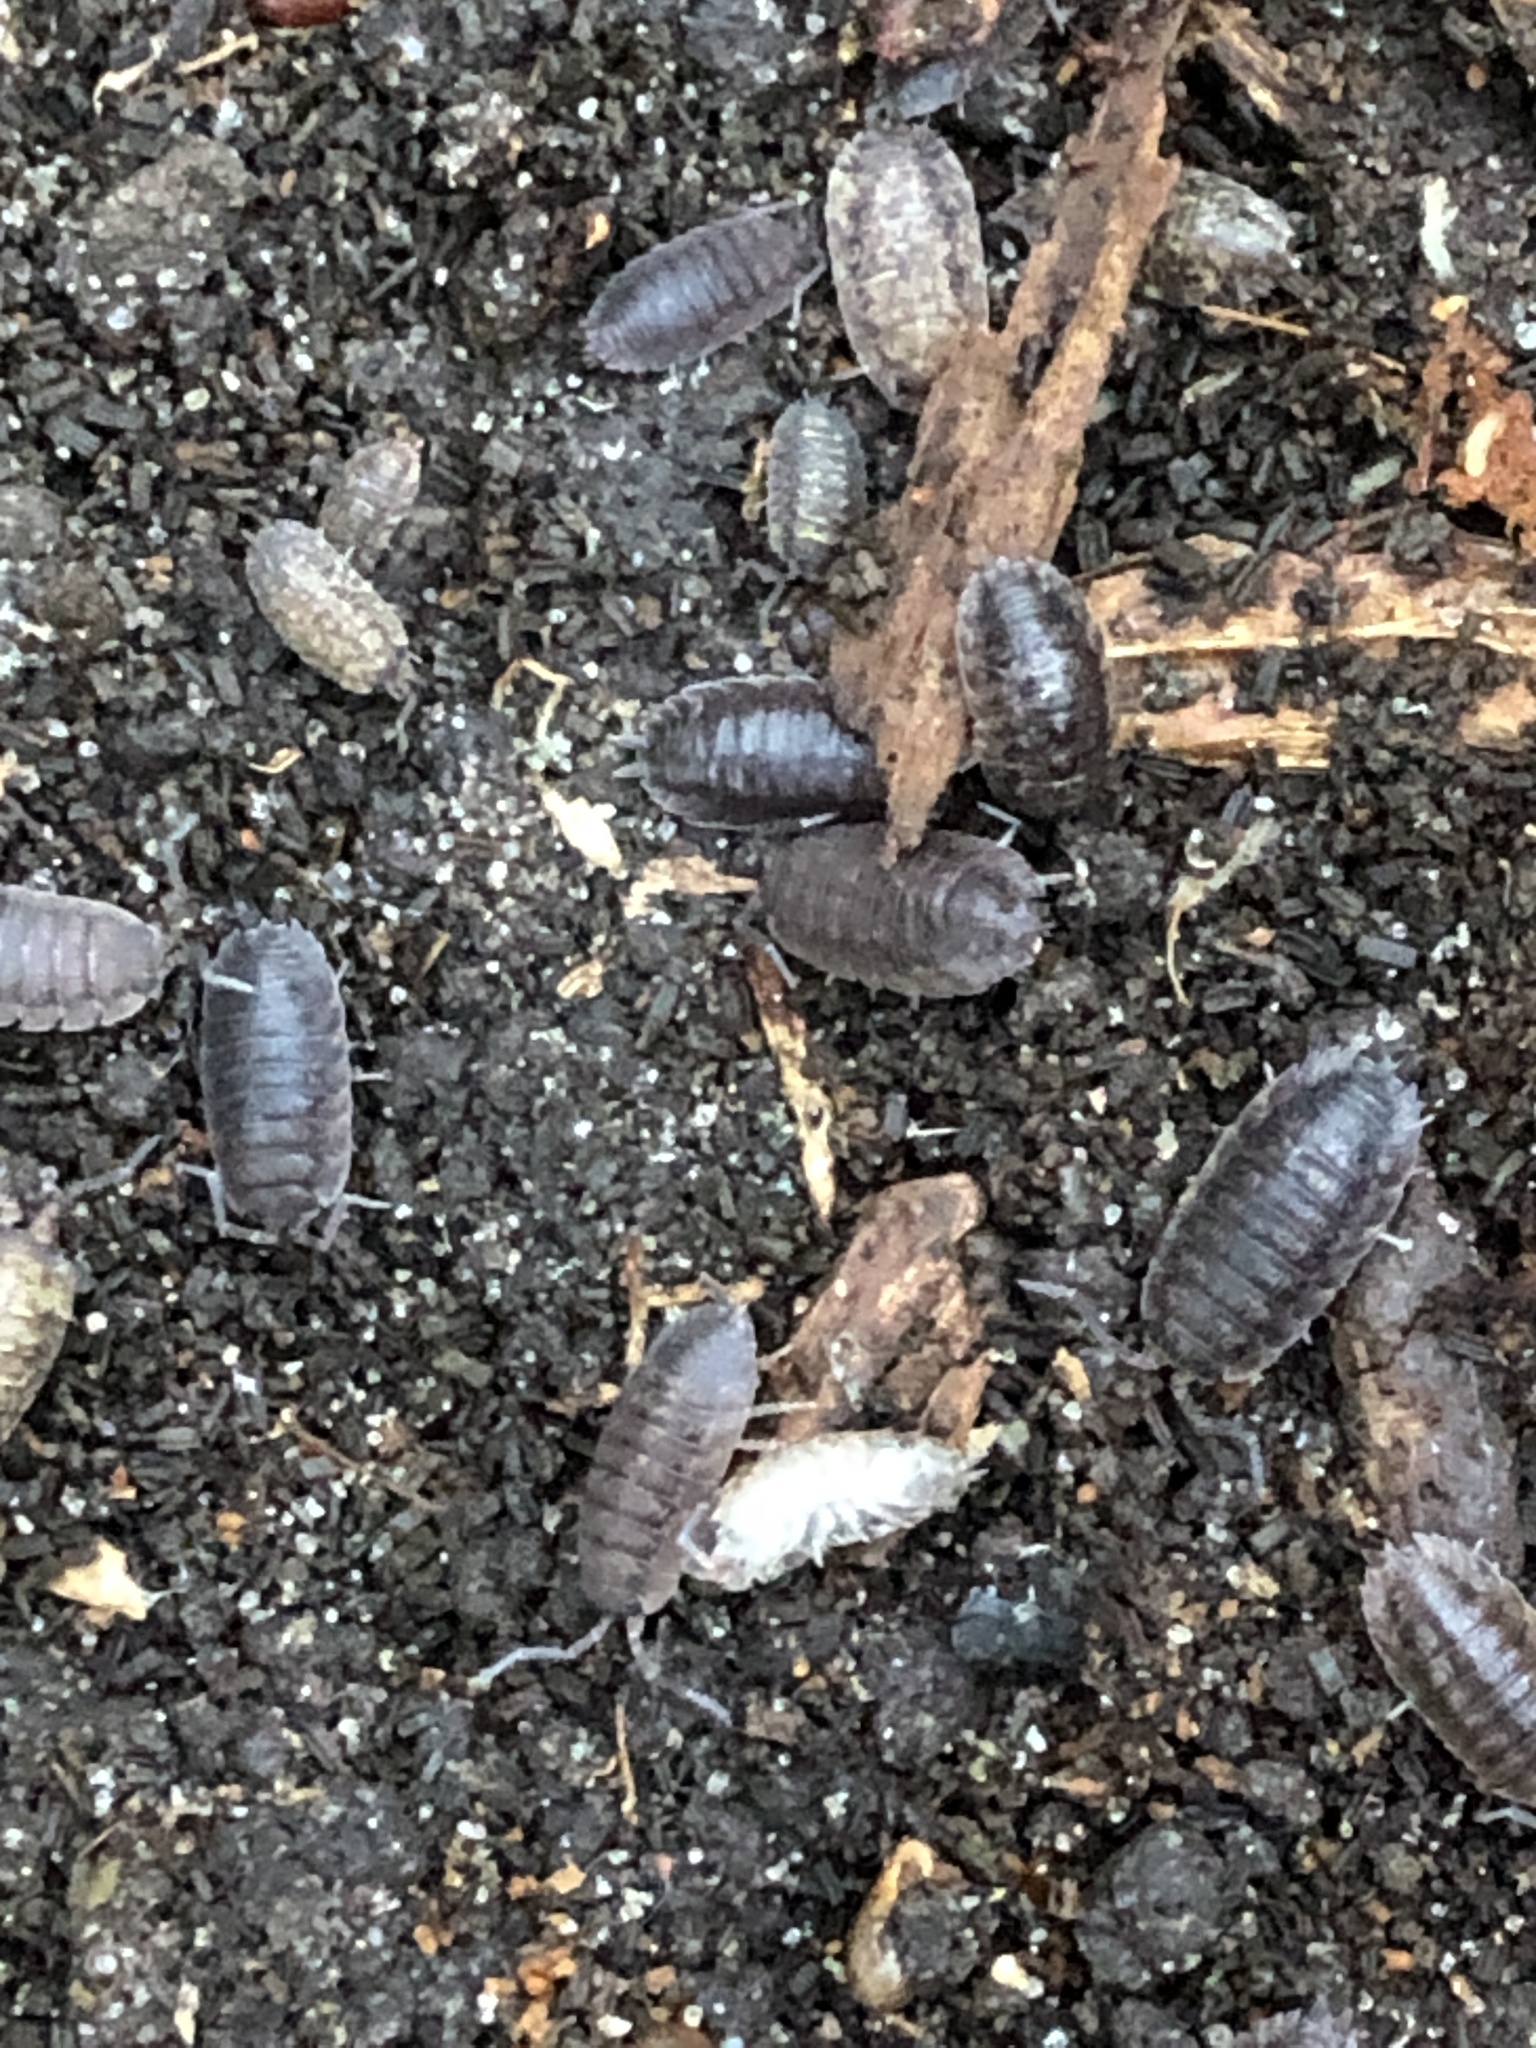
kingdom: Animalia
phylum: Arthropoda
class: Malacostraca
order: Isopoda
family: Porcellionidae
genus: Porcellio
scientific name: Porcellio scaber
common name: Common rough woodlouse
